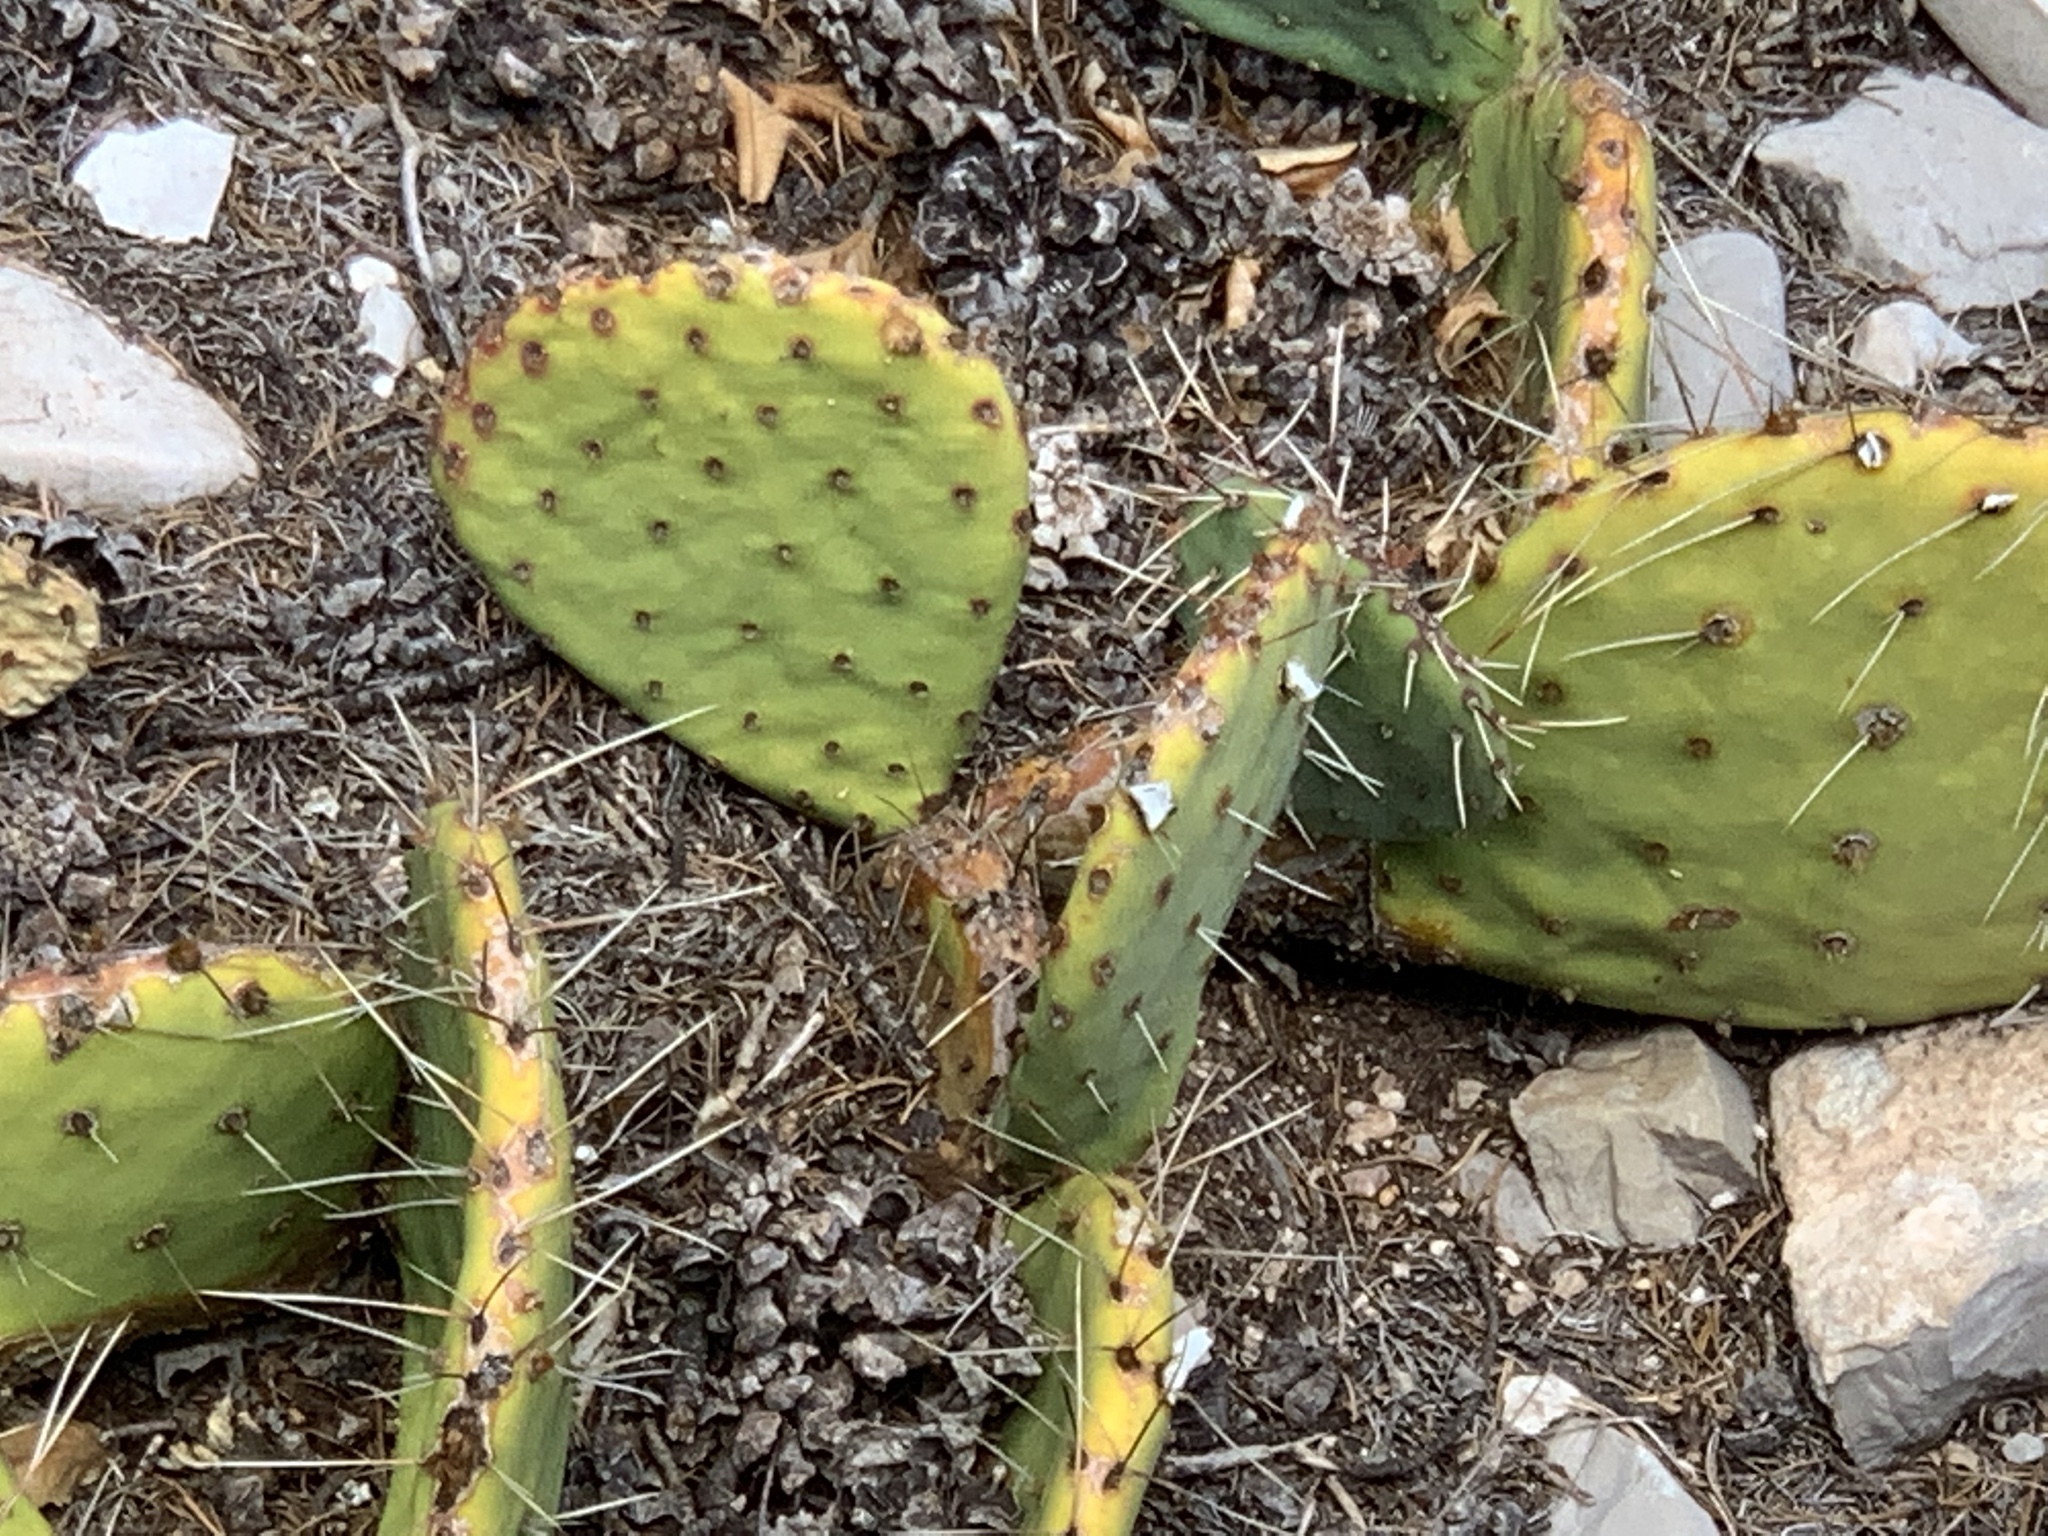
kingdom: Plantae
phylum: Tracheophyta
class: Magnoliopsida
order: Caryophyllales
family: Cactaceae
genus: Opuntia
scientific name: Opuntia phaeacantha
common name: New mexico prickly-pear
